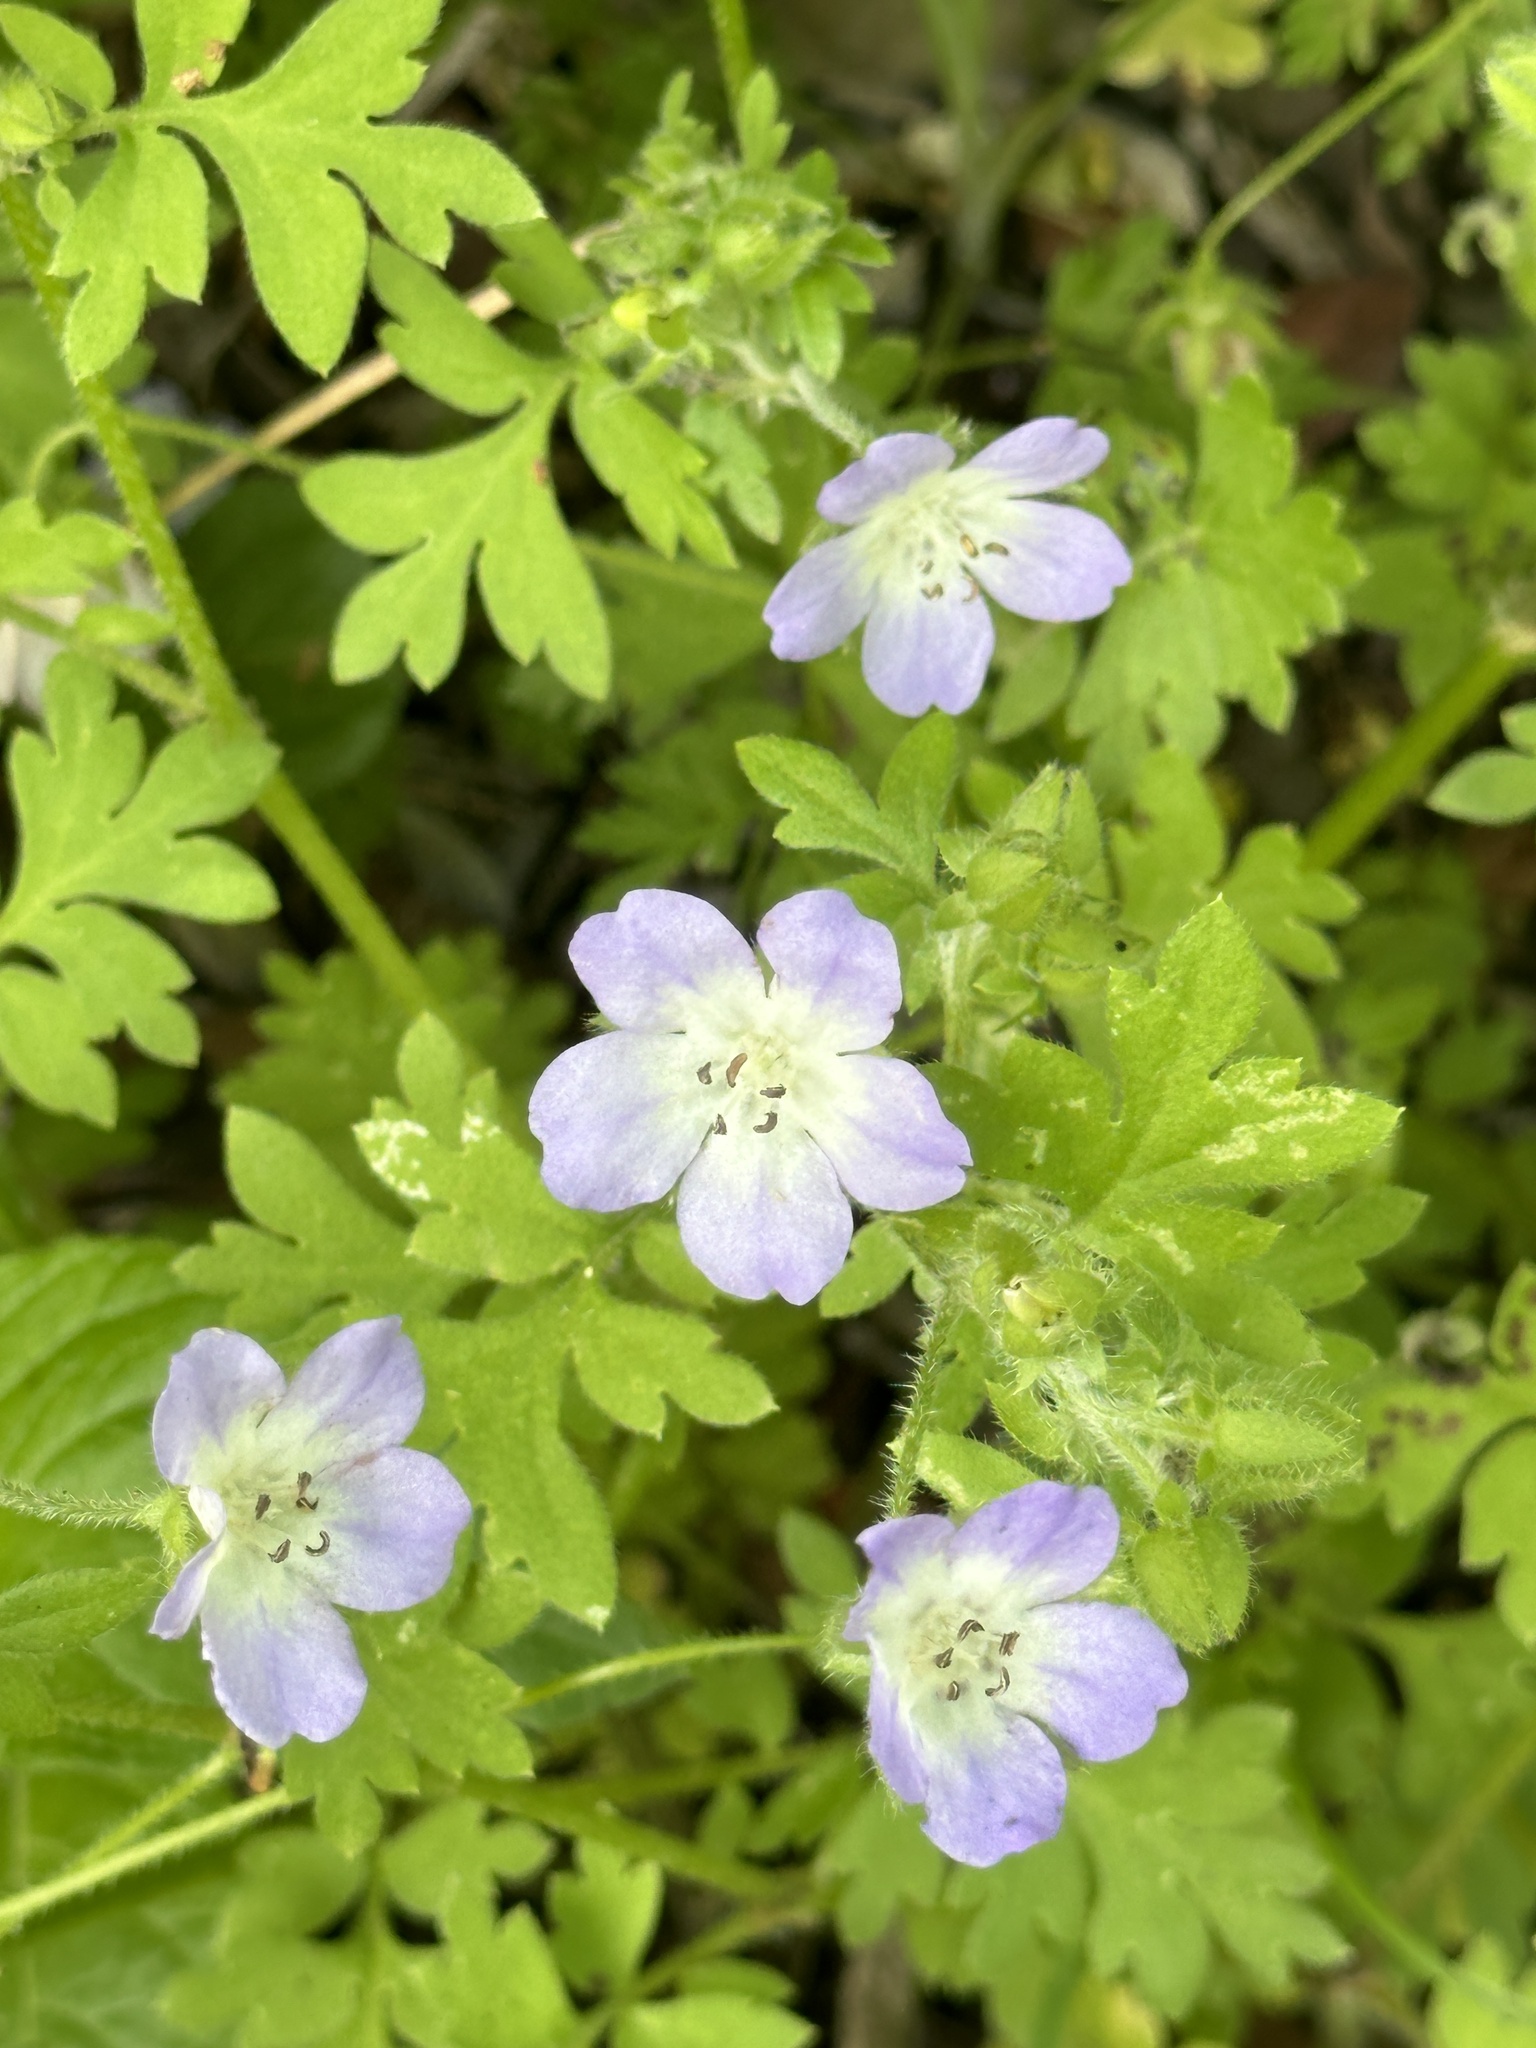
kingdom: Plantae
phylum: Tracheophyta
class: Magnoliopsida
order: Boraginales
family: Hydrophyllaceae
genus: Nemophila
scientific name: Nemophila phacelioides
